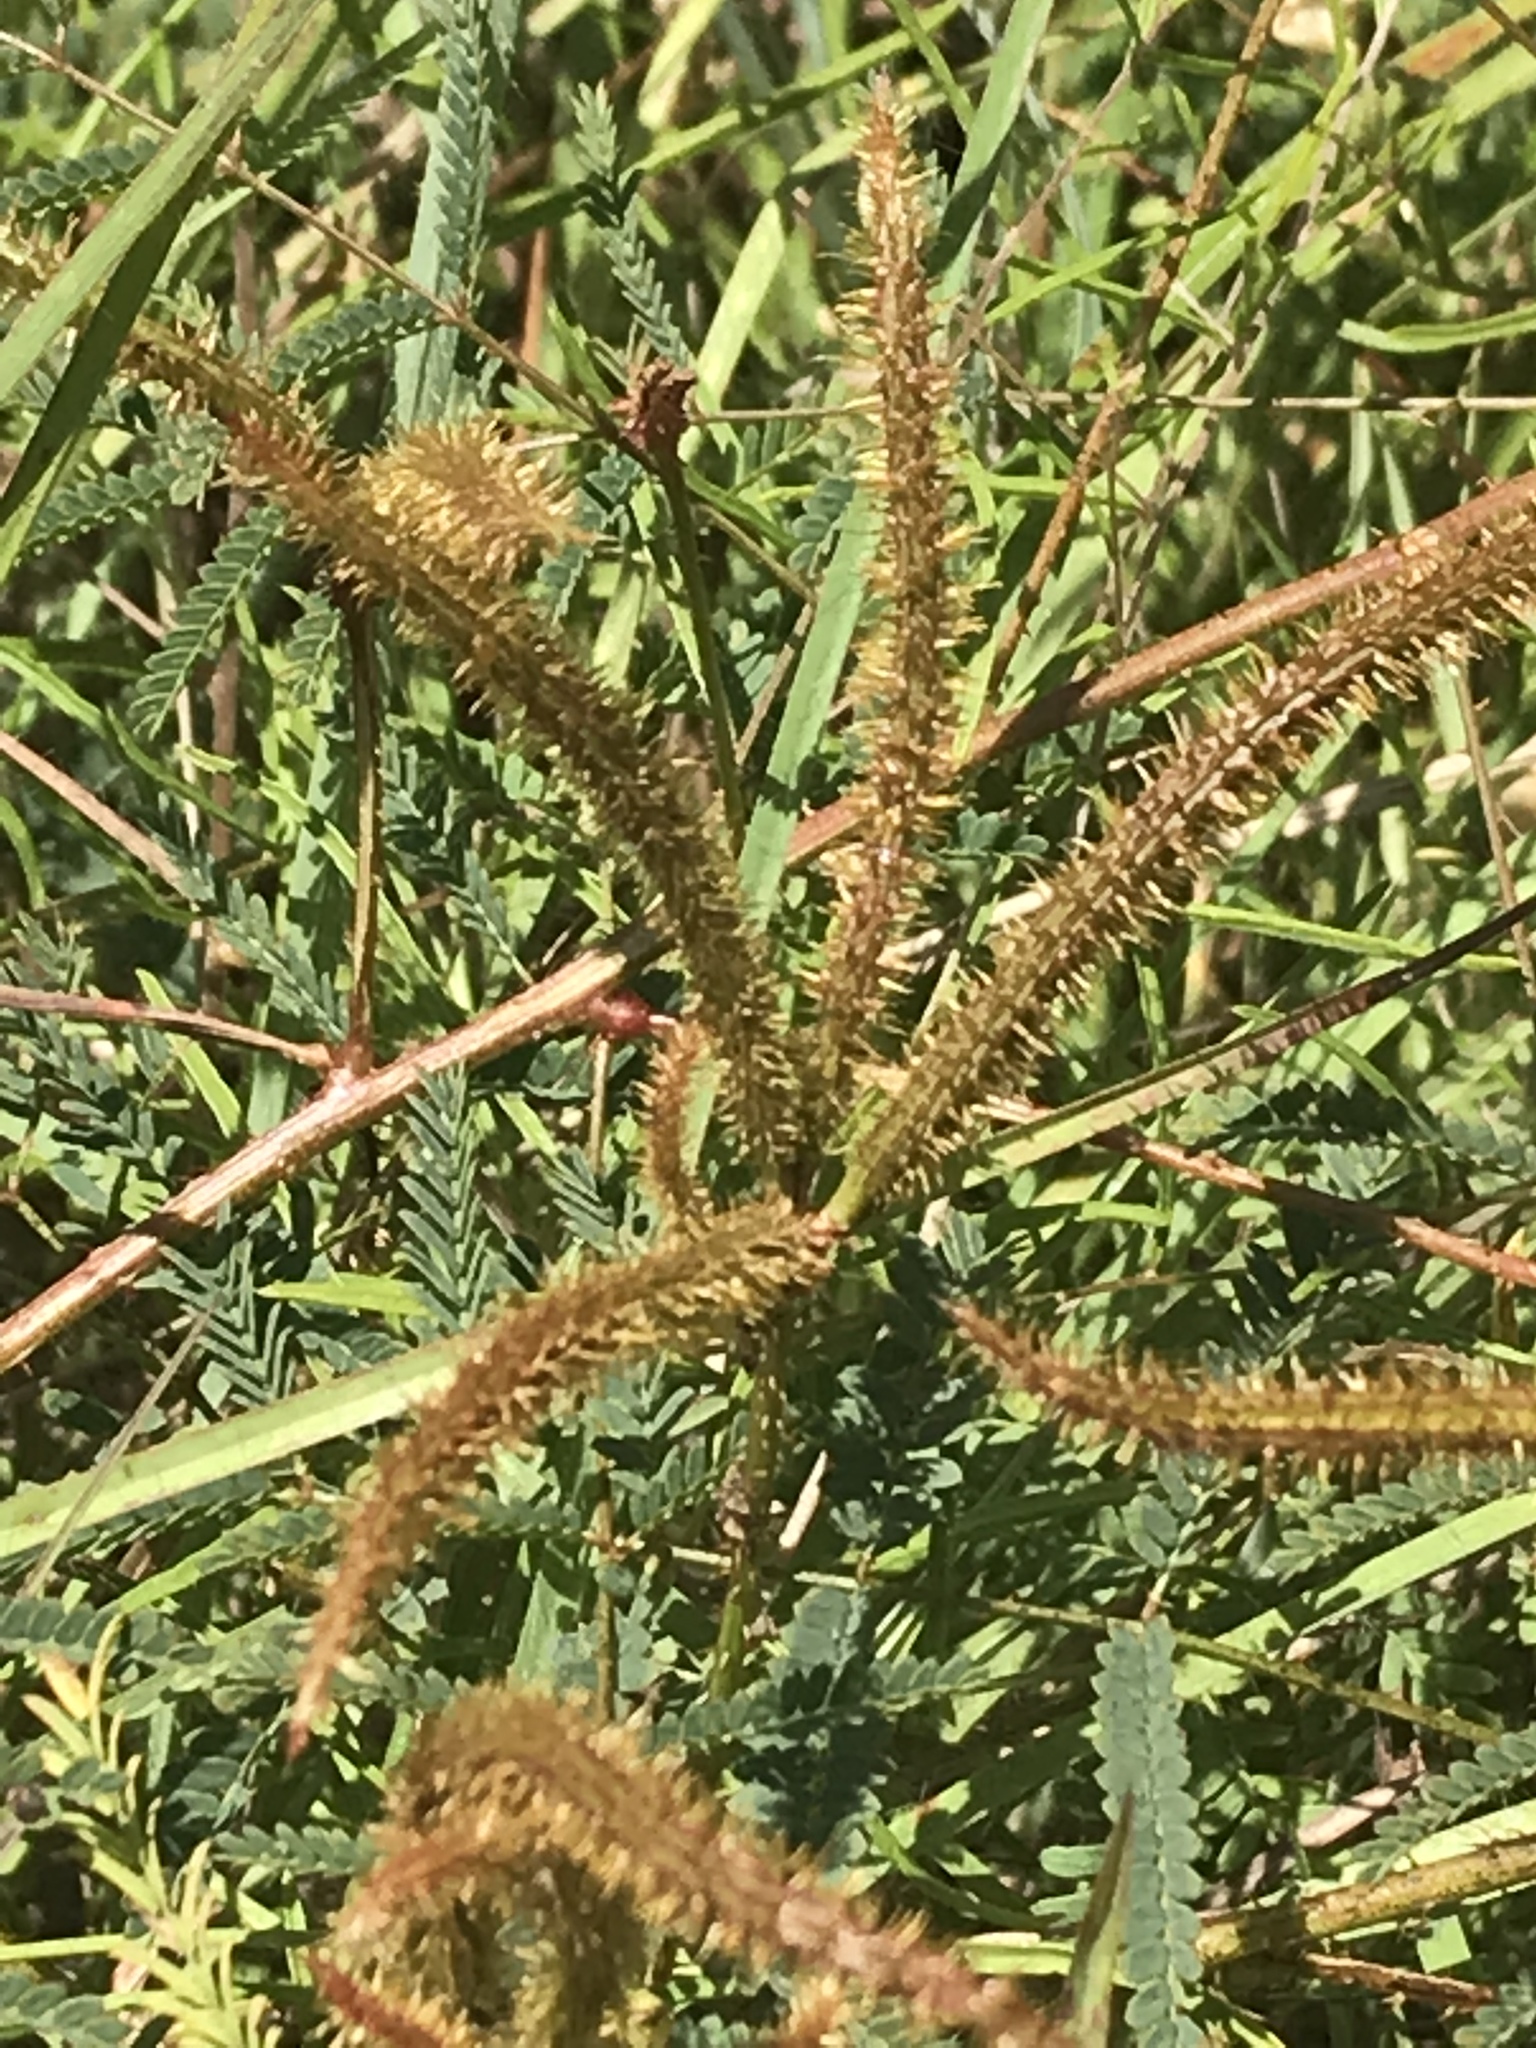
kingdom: Plantae
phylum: Tracheophyta
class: Magnoliopsida
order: Fabales
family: Fabaceae
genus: Mimosa
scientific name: Mimosa quadrivalvis
